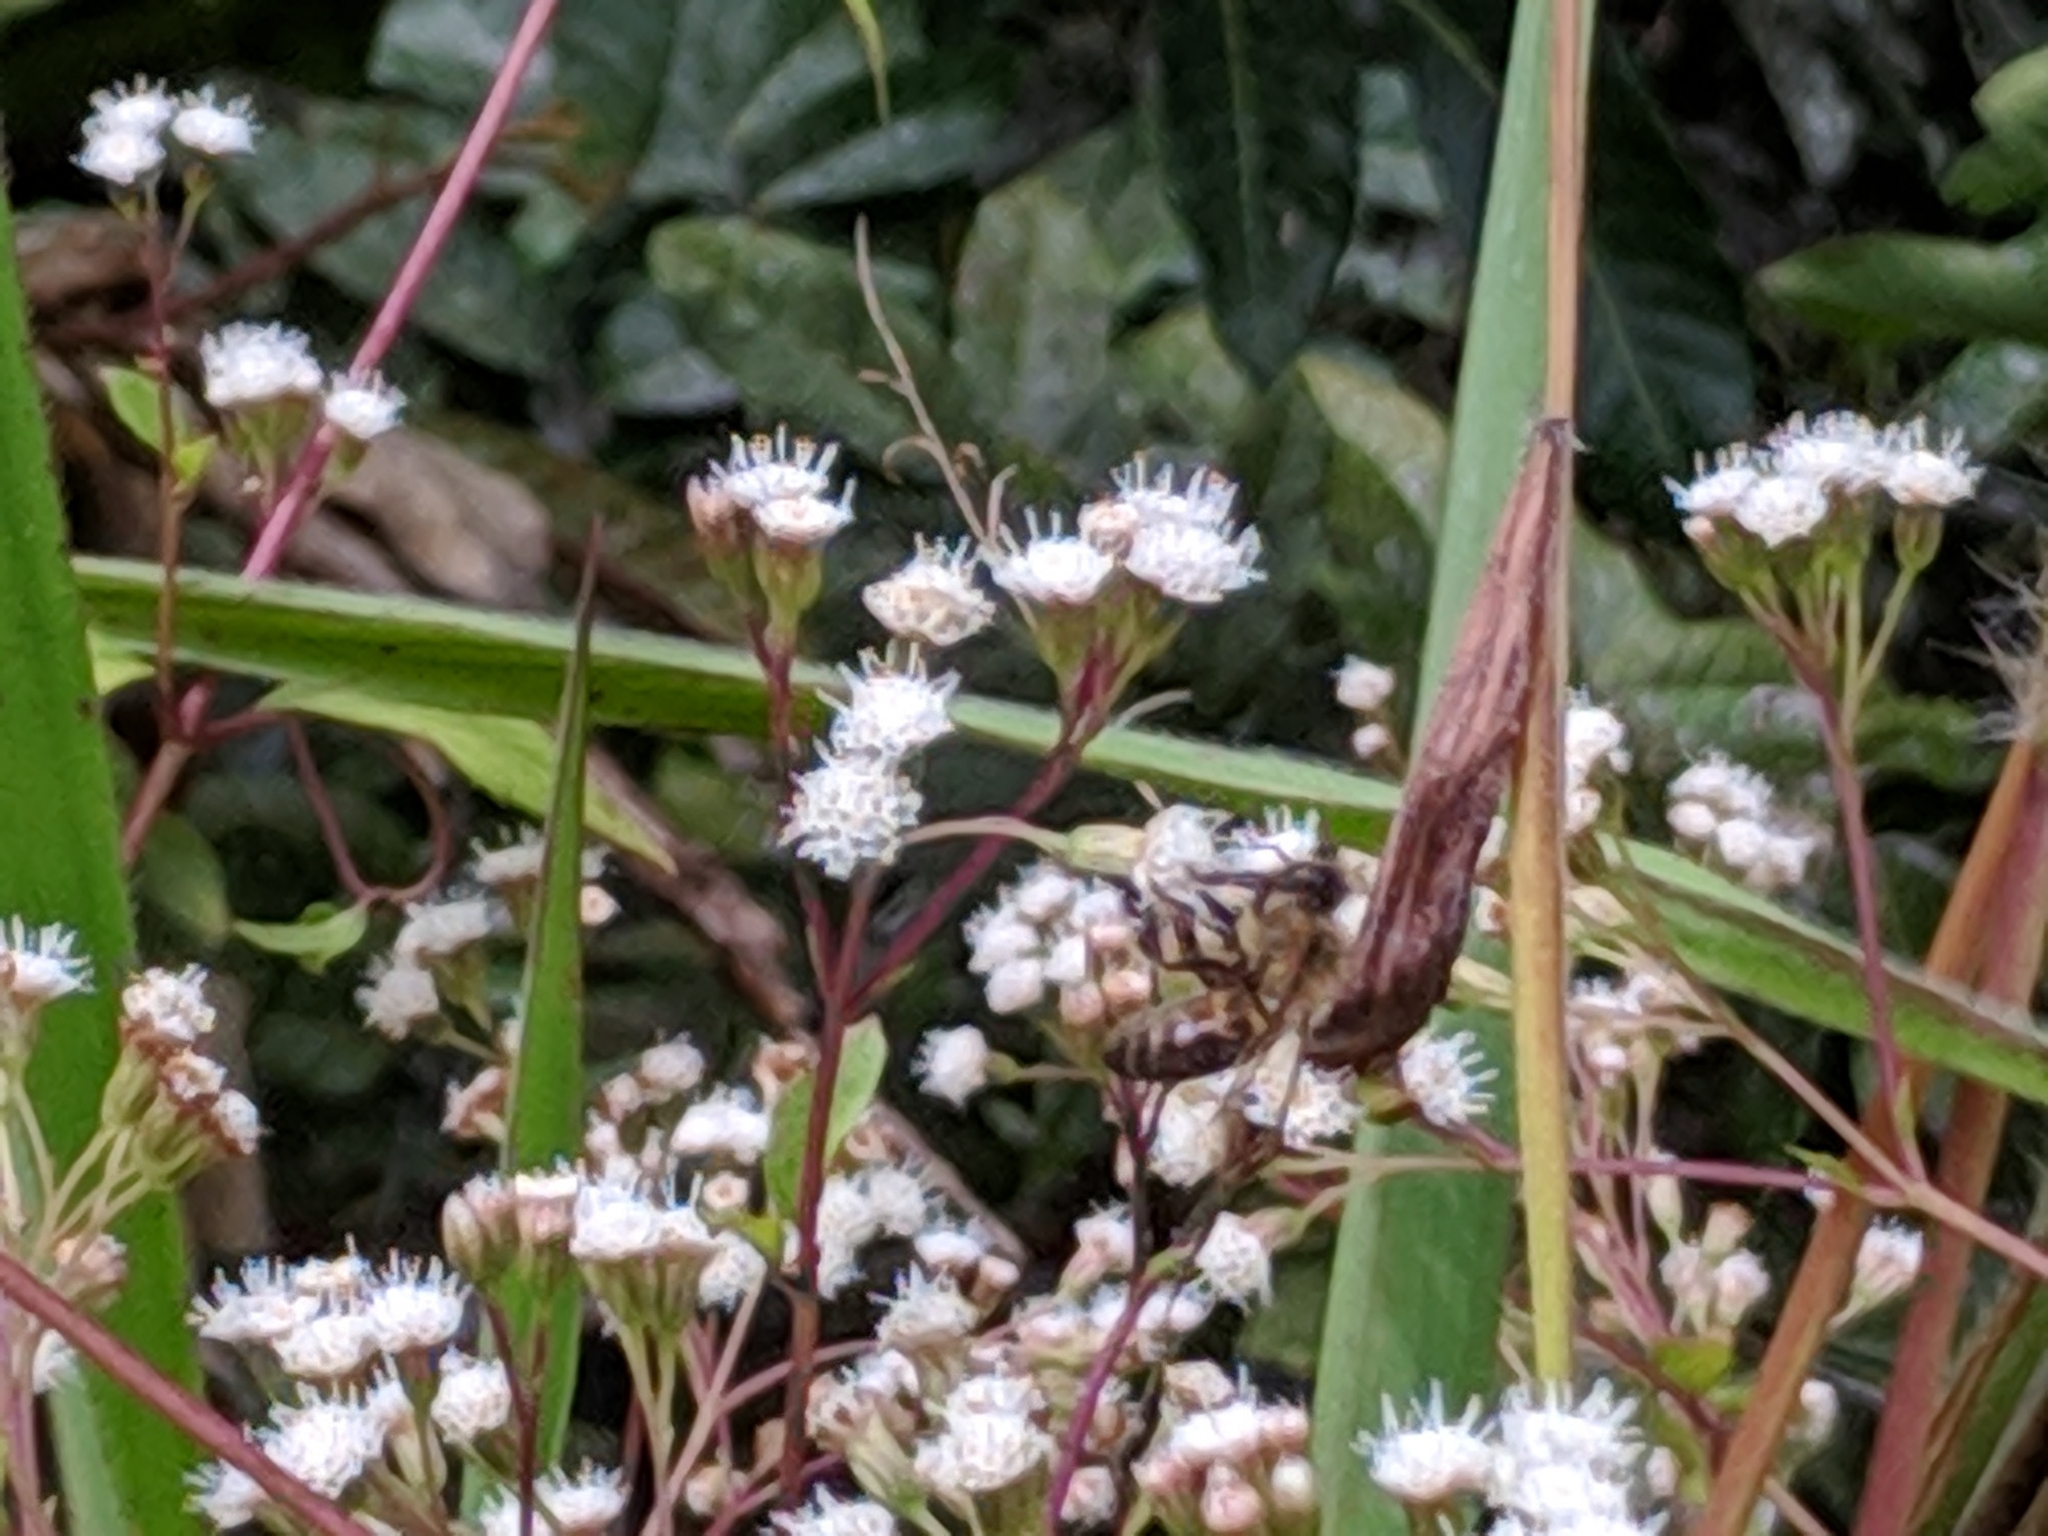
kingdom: Animalia
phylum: Arthropoda
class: Insecta
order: Hymenoptera
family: Apidae
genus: Apis
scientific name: Apis mellifera
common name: Honey bee
